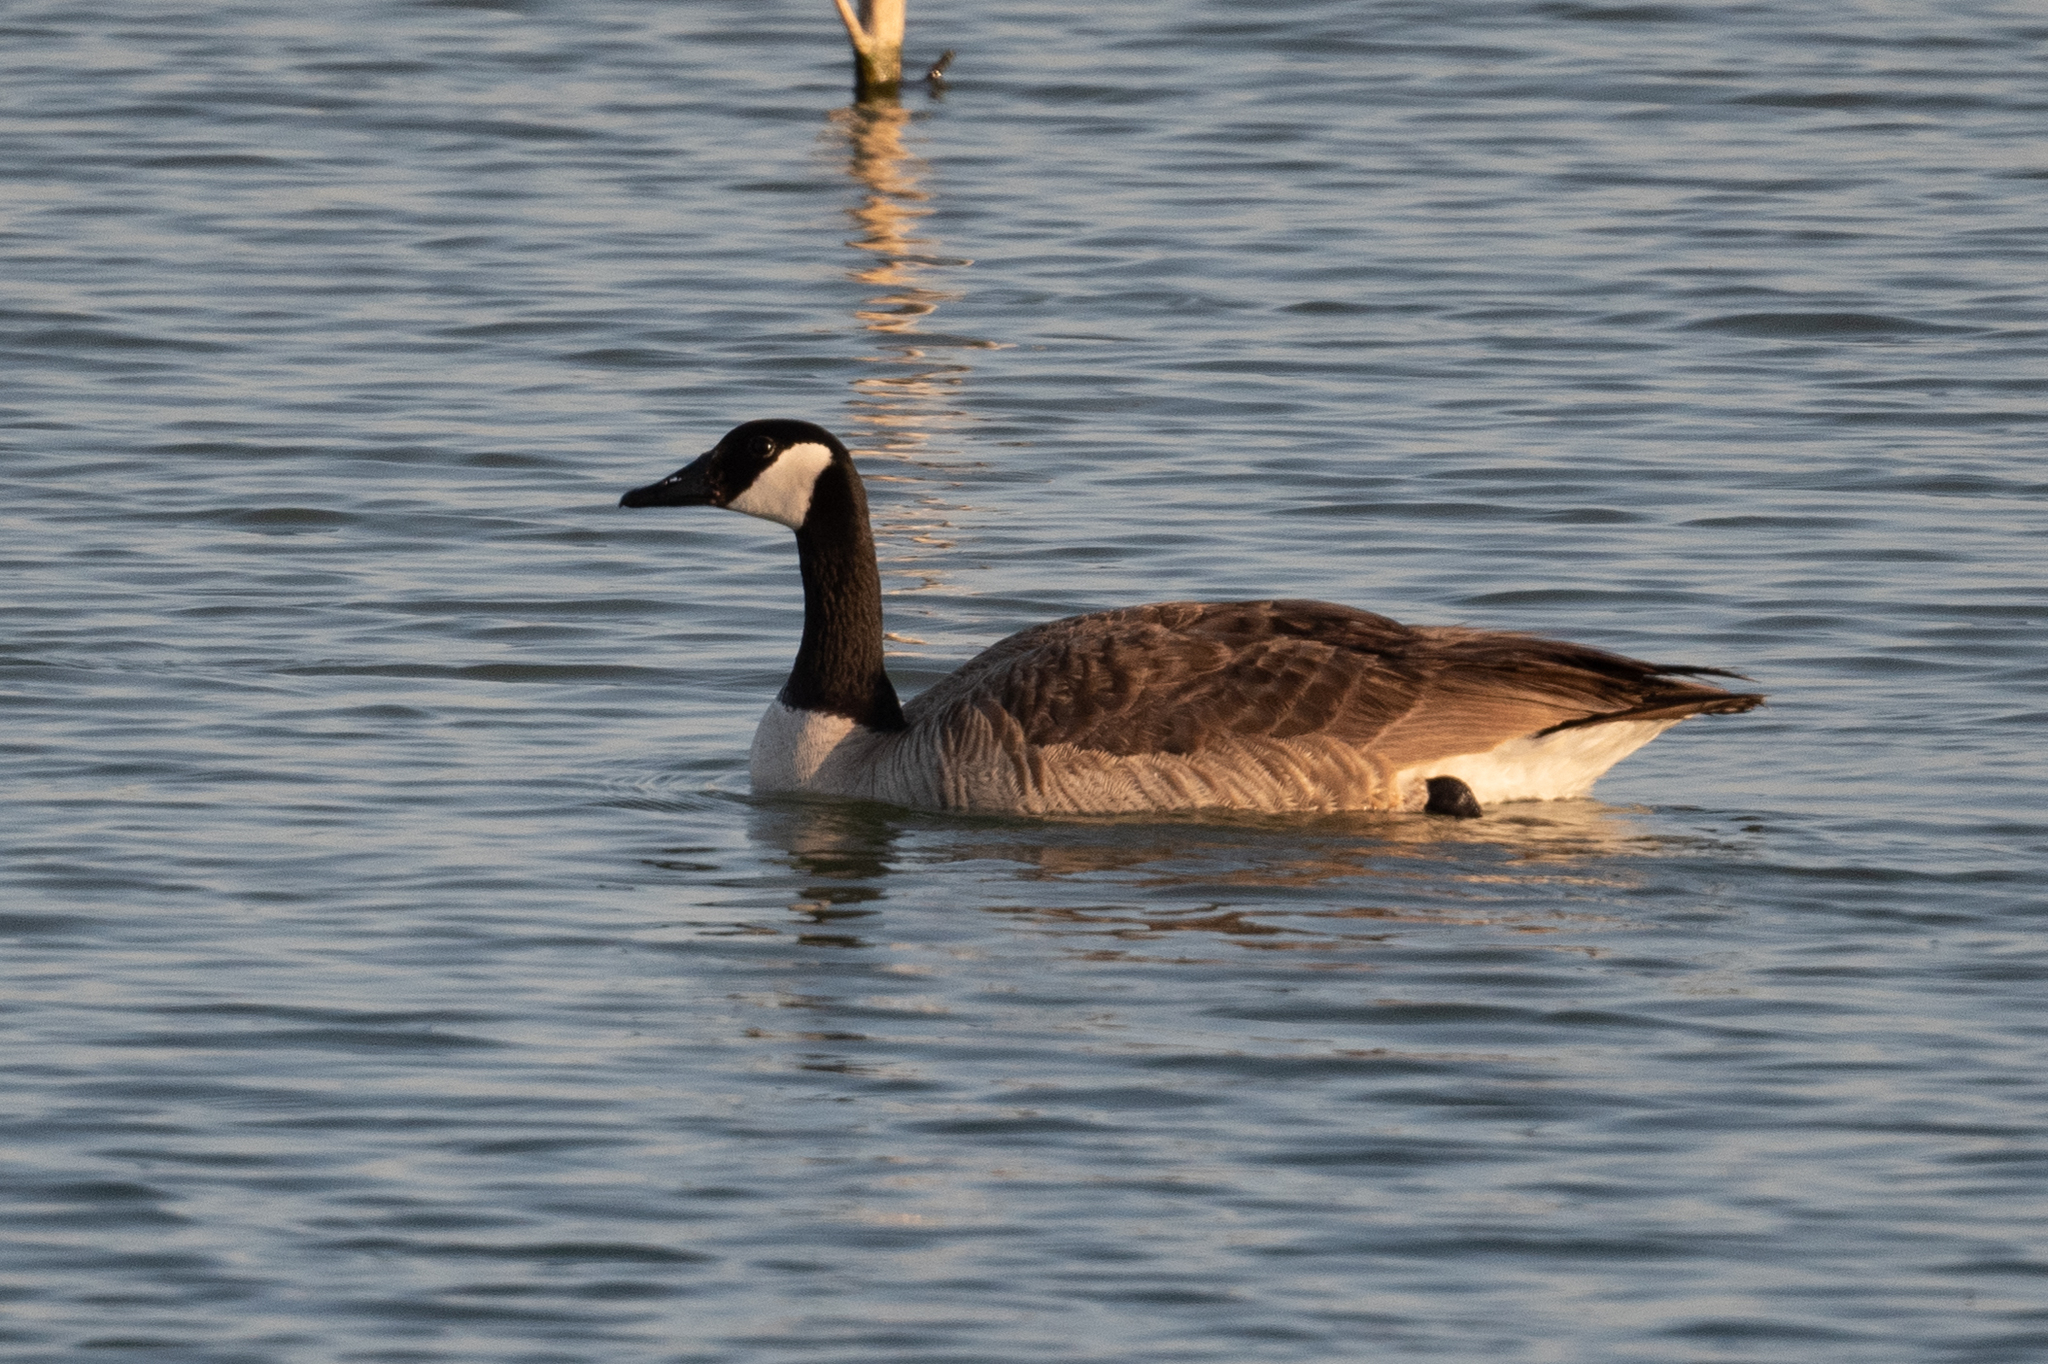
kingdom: Animalia
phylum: Chordata
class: Aves
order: Anseriformes
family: Anatidae
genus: Branta
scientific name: Branta canadensis
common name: Canada goose
